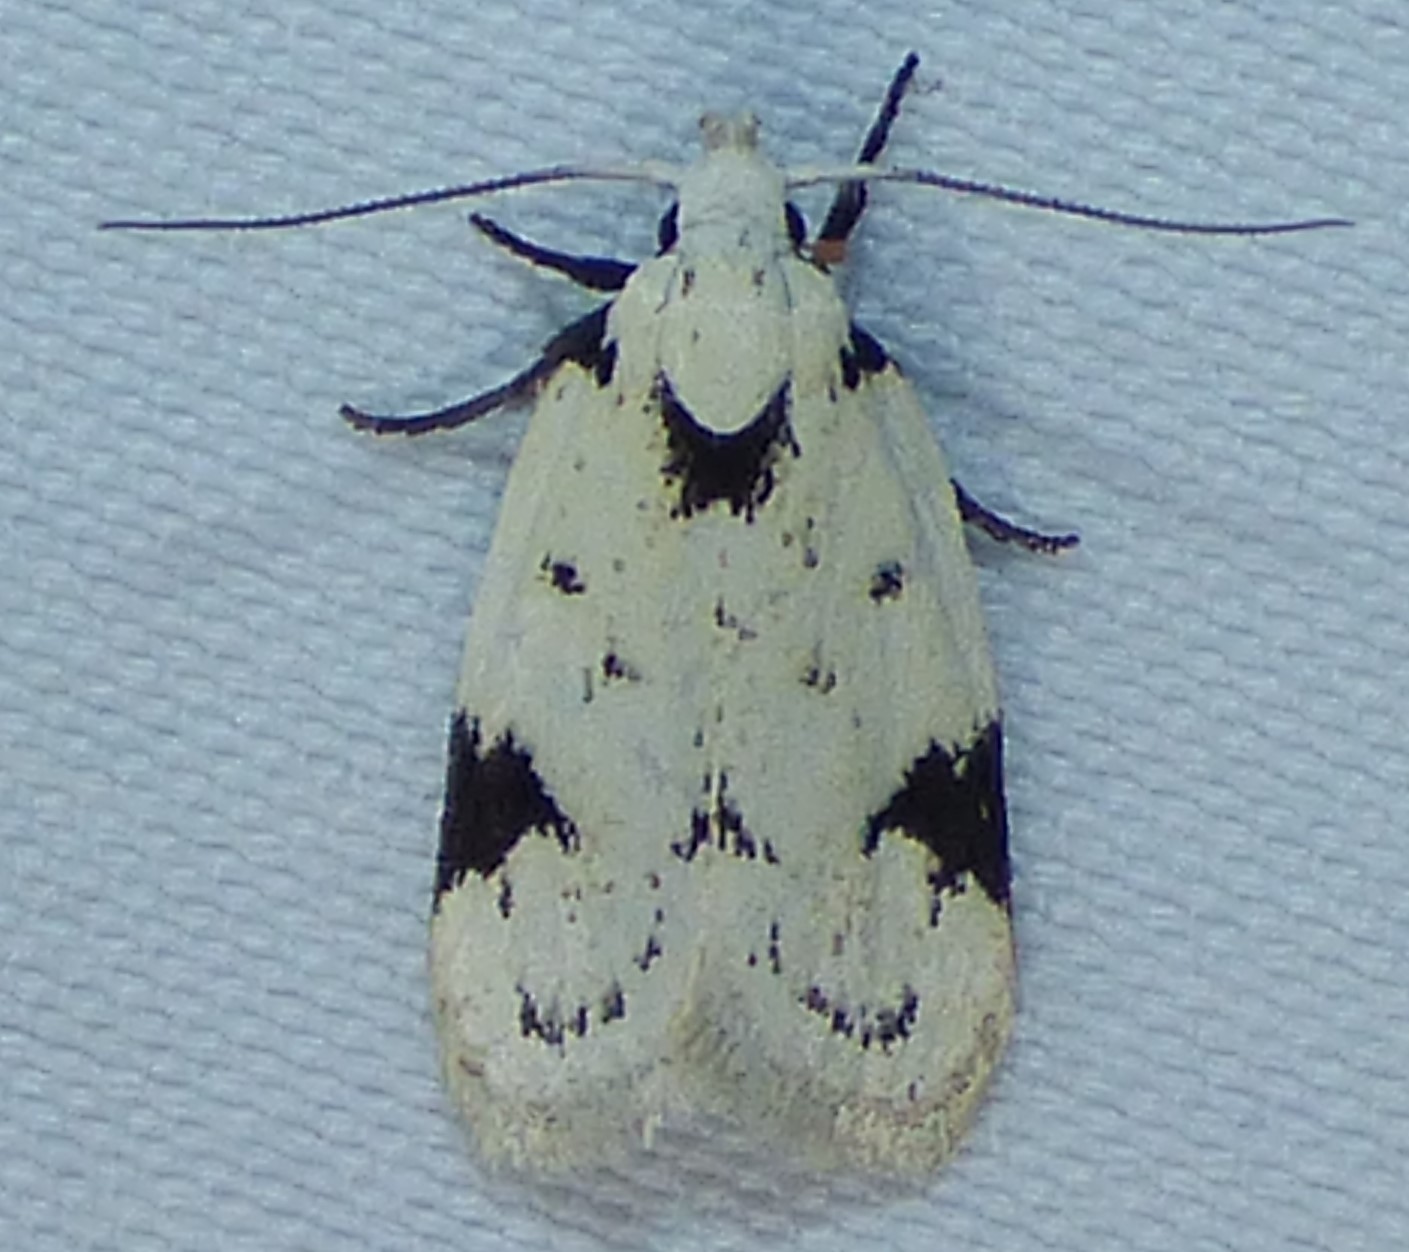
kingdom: Animalia
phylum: Arthropoda
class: Insecta
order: Lepidoptera
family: Oecophoridae
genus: Inga
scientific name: Inga sparsiciliella
